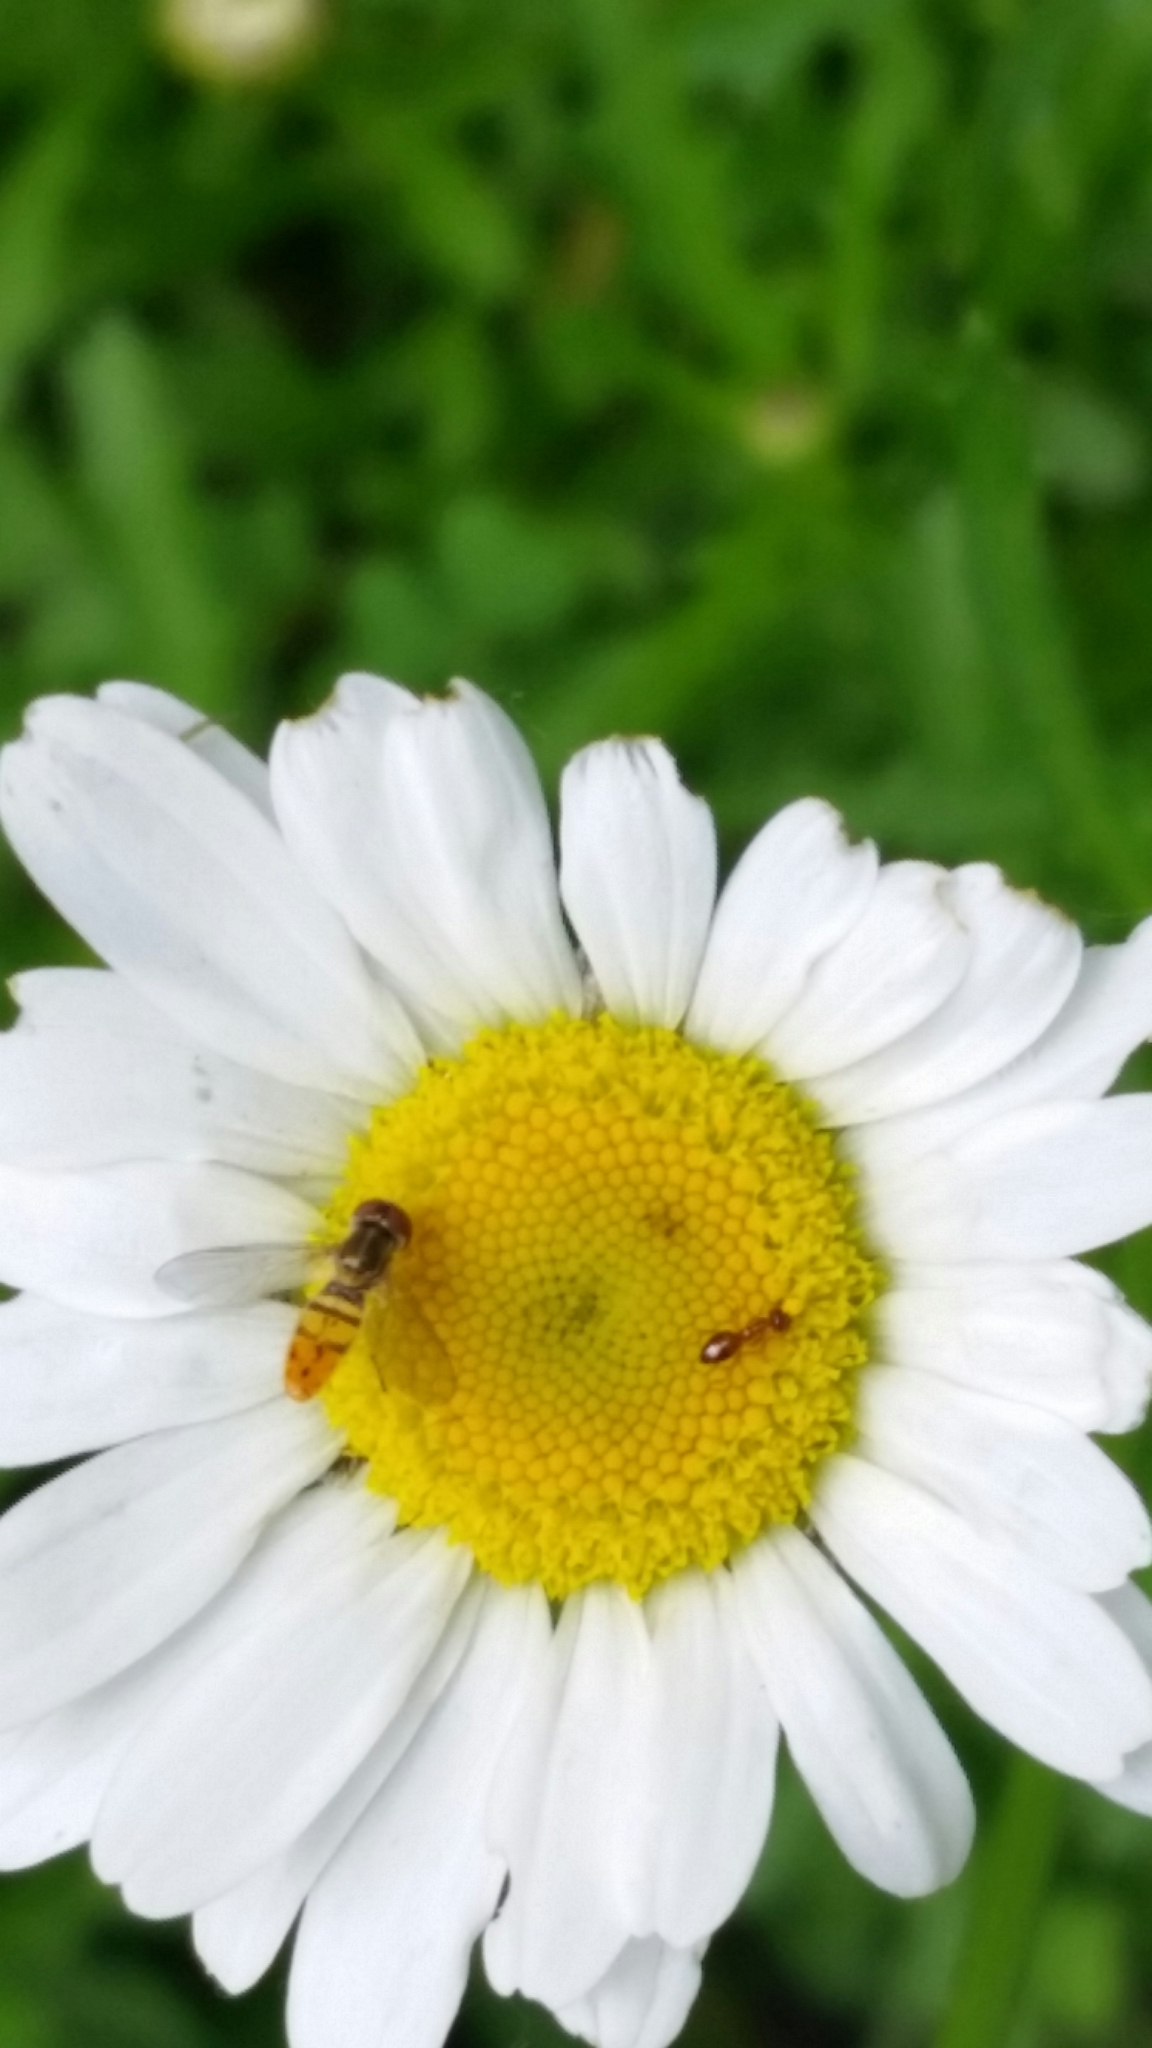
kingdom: Animalia
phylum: Arthropoda
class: Insecta
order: Diptera
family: Syrphidae
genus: Toxomerus
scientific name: Toxomerus marginatus
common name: Syrphid fly
